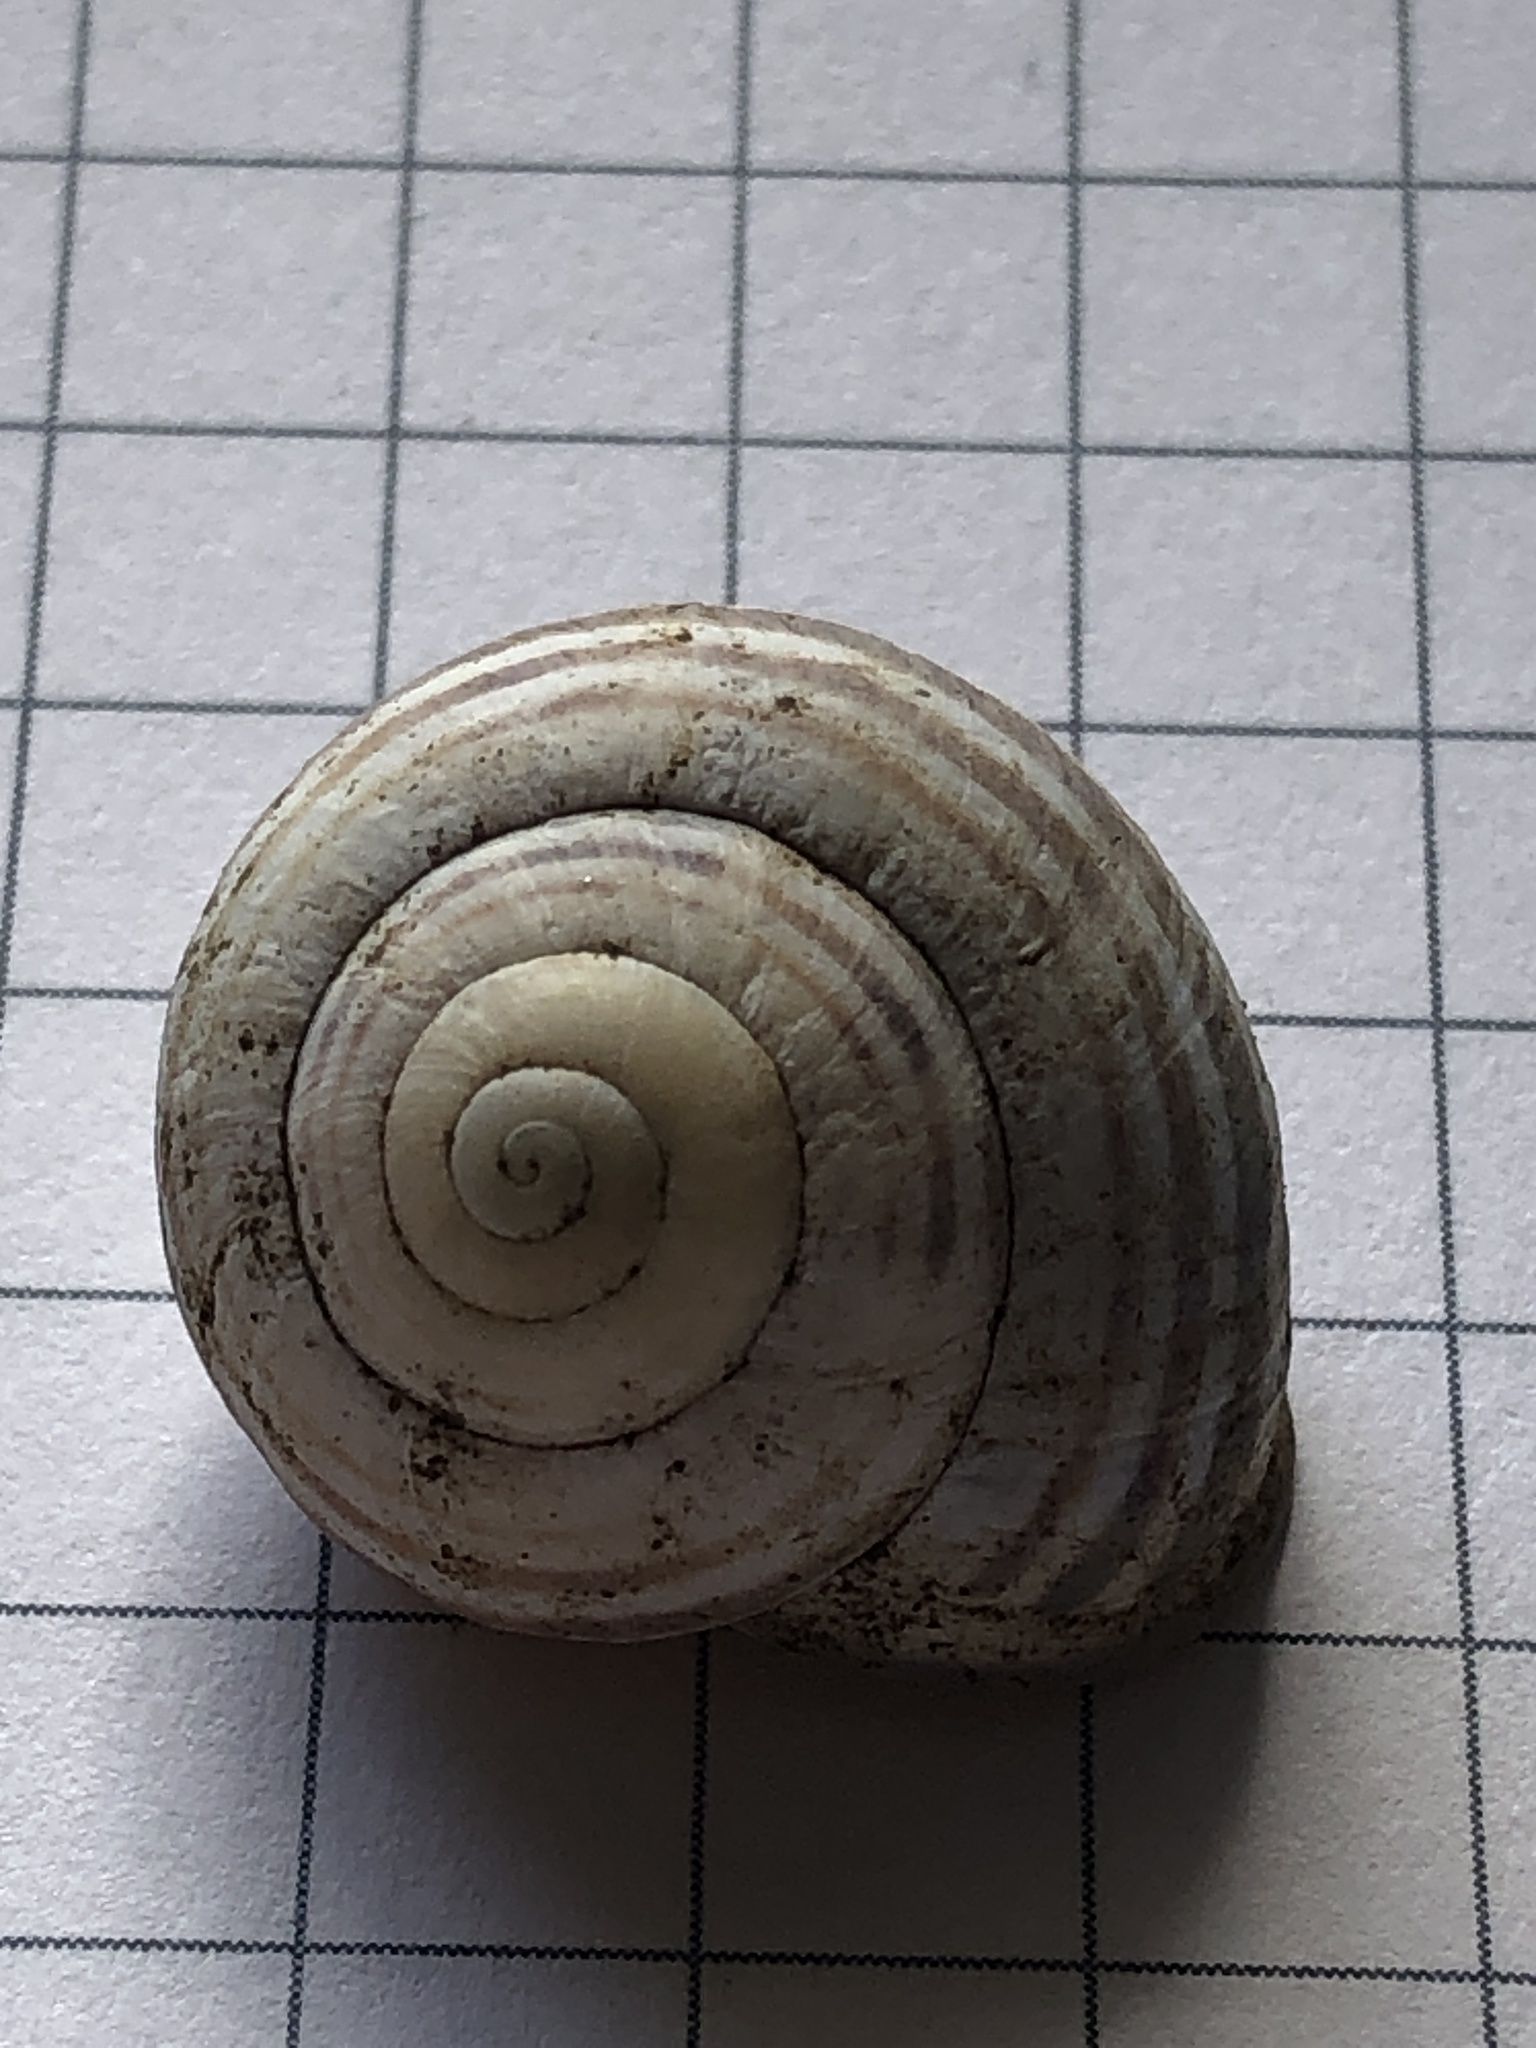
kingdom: Animalia
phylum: Mollusca
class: Gastropoda
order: Stylommatophora
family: Helicidae
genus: Cepaea
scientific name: Cepaea nemoralis
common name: Grovesnail
